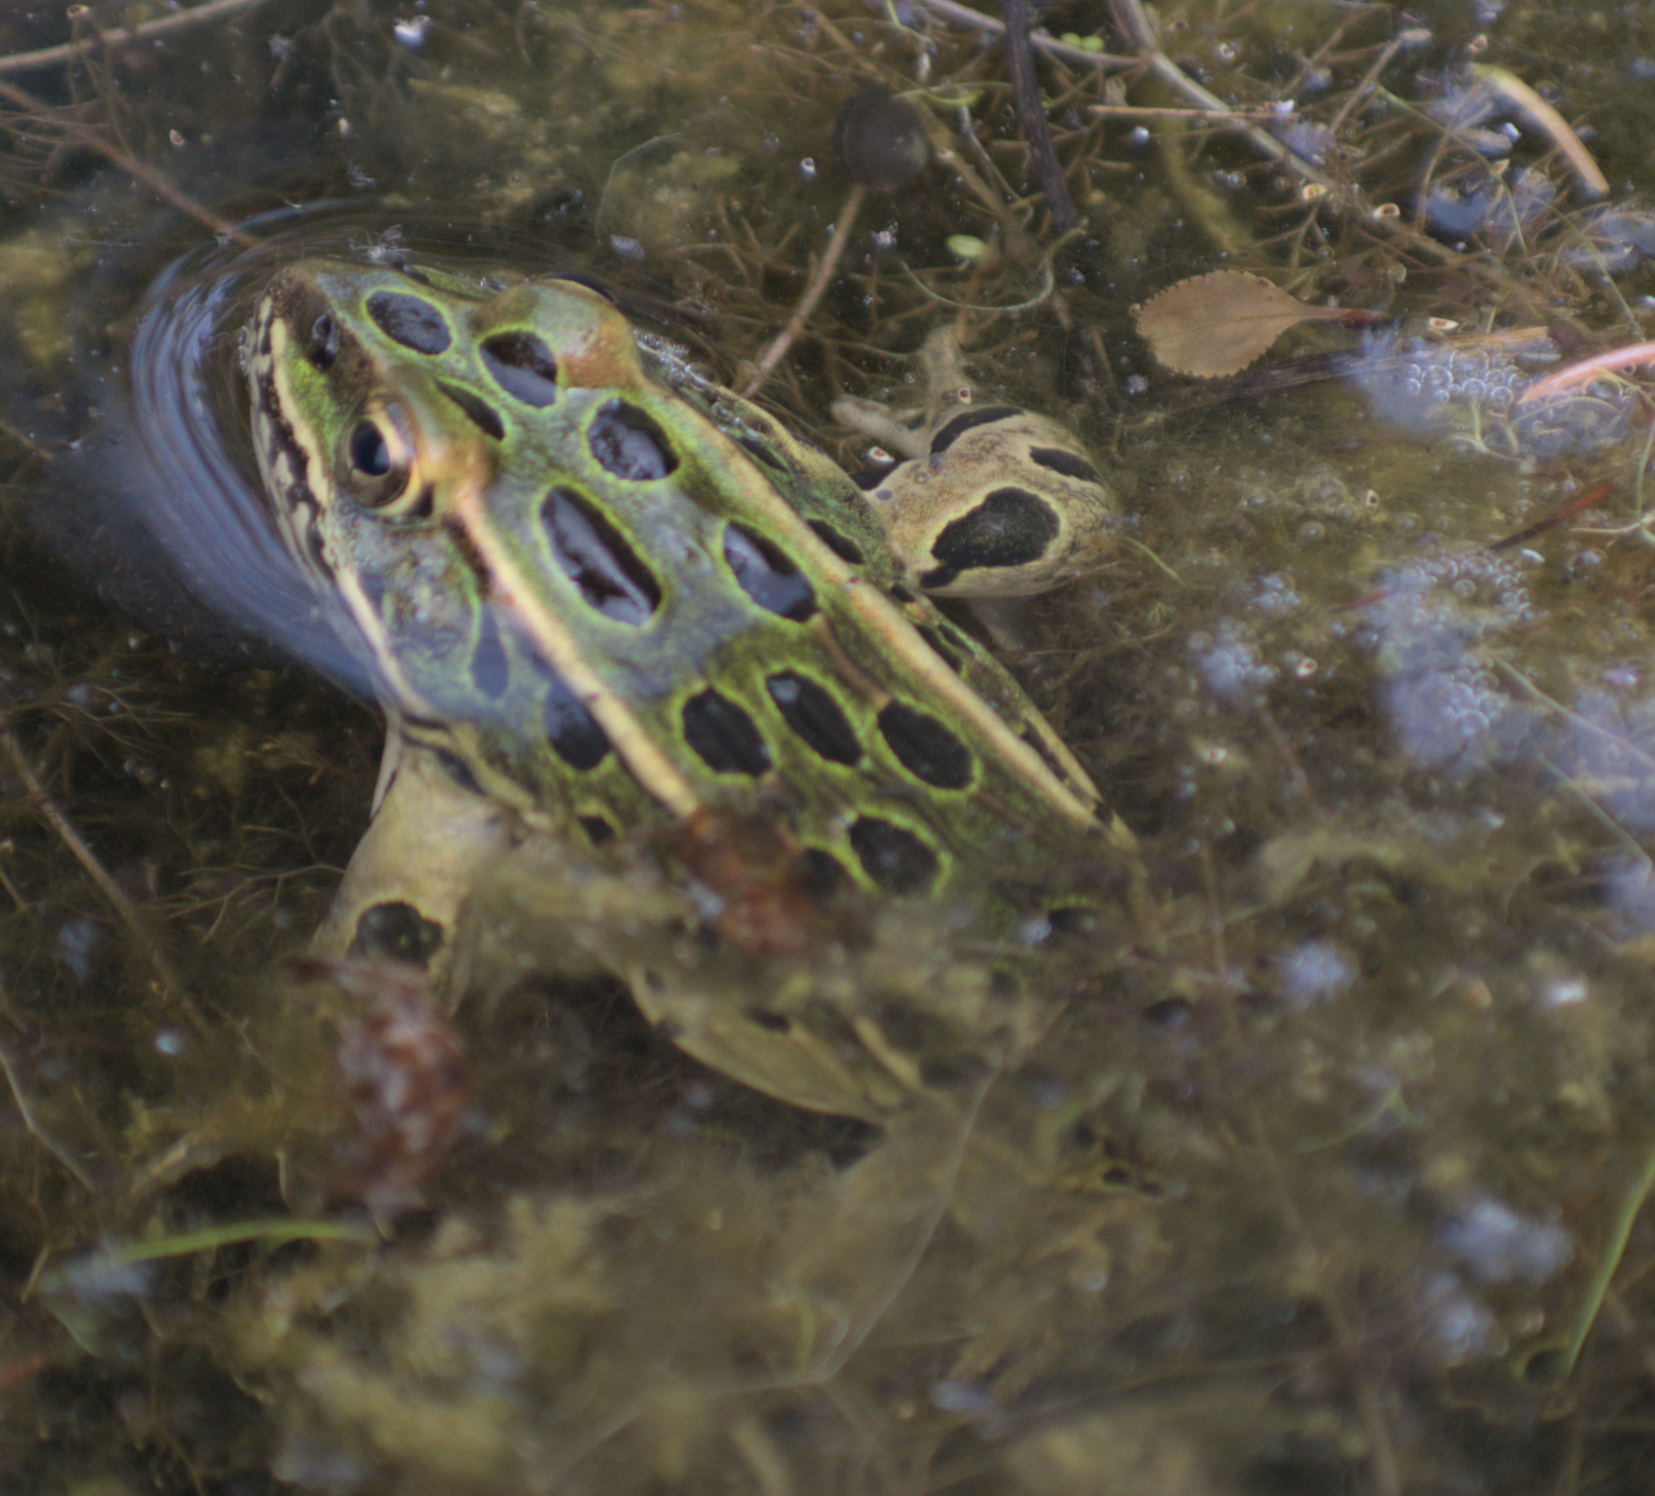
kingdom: Animalia
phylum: Chordata
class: Amphibia
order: Anura
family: Ranidae
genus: Lithobates
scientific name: Lithobates pipiens
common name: Northern leopard frog
